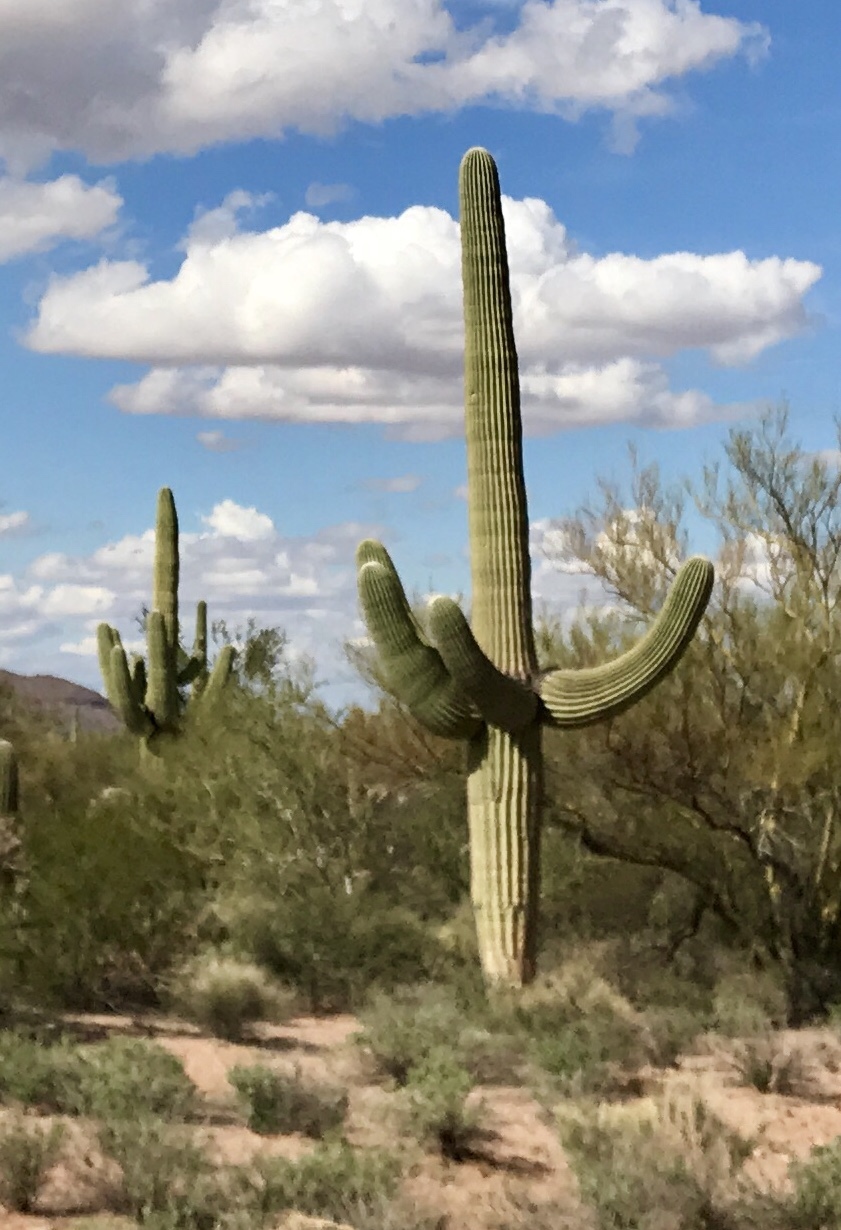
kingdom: Plantae
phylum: Tracheophyta
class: Magnoliopsida
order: Caryophyllales
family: Cactaceae
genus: Carnegiea
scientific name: Carnegiea gigantea
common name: Saguaro
